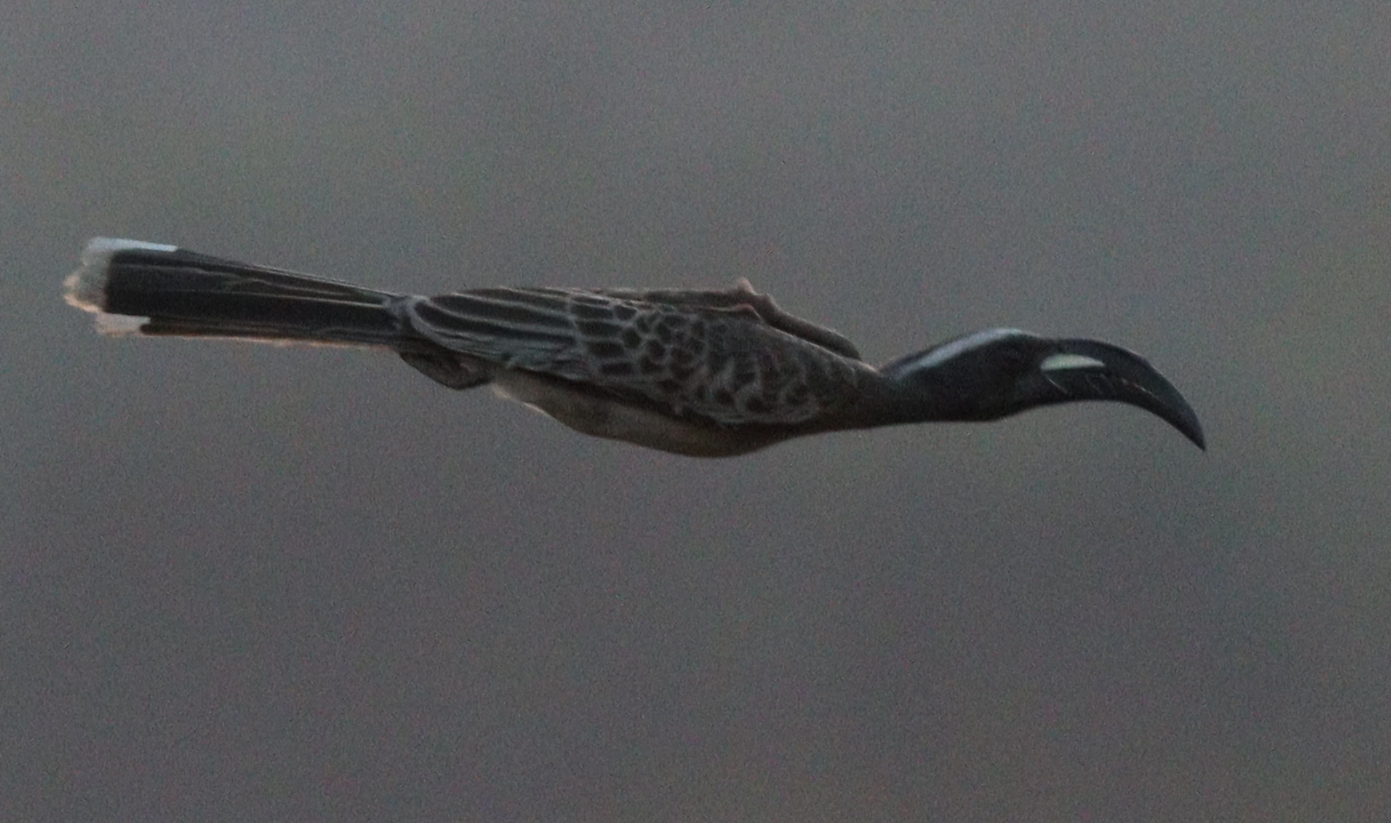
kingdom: Animalia
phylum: Chordata
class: Aves
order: Bucerotiformes
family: Bucerotidae
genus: Lophoceros
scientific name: Lophoceros nasutus
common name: African grey hornbill
